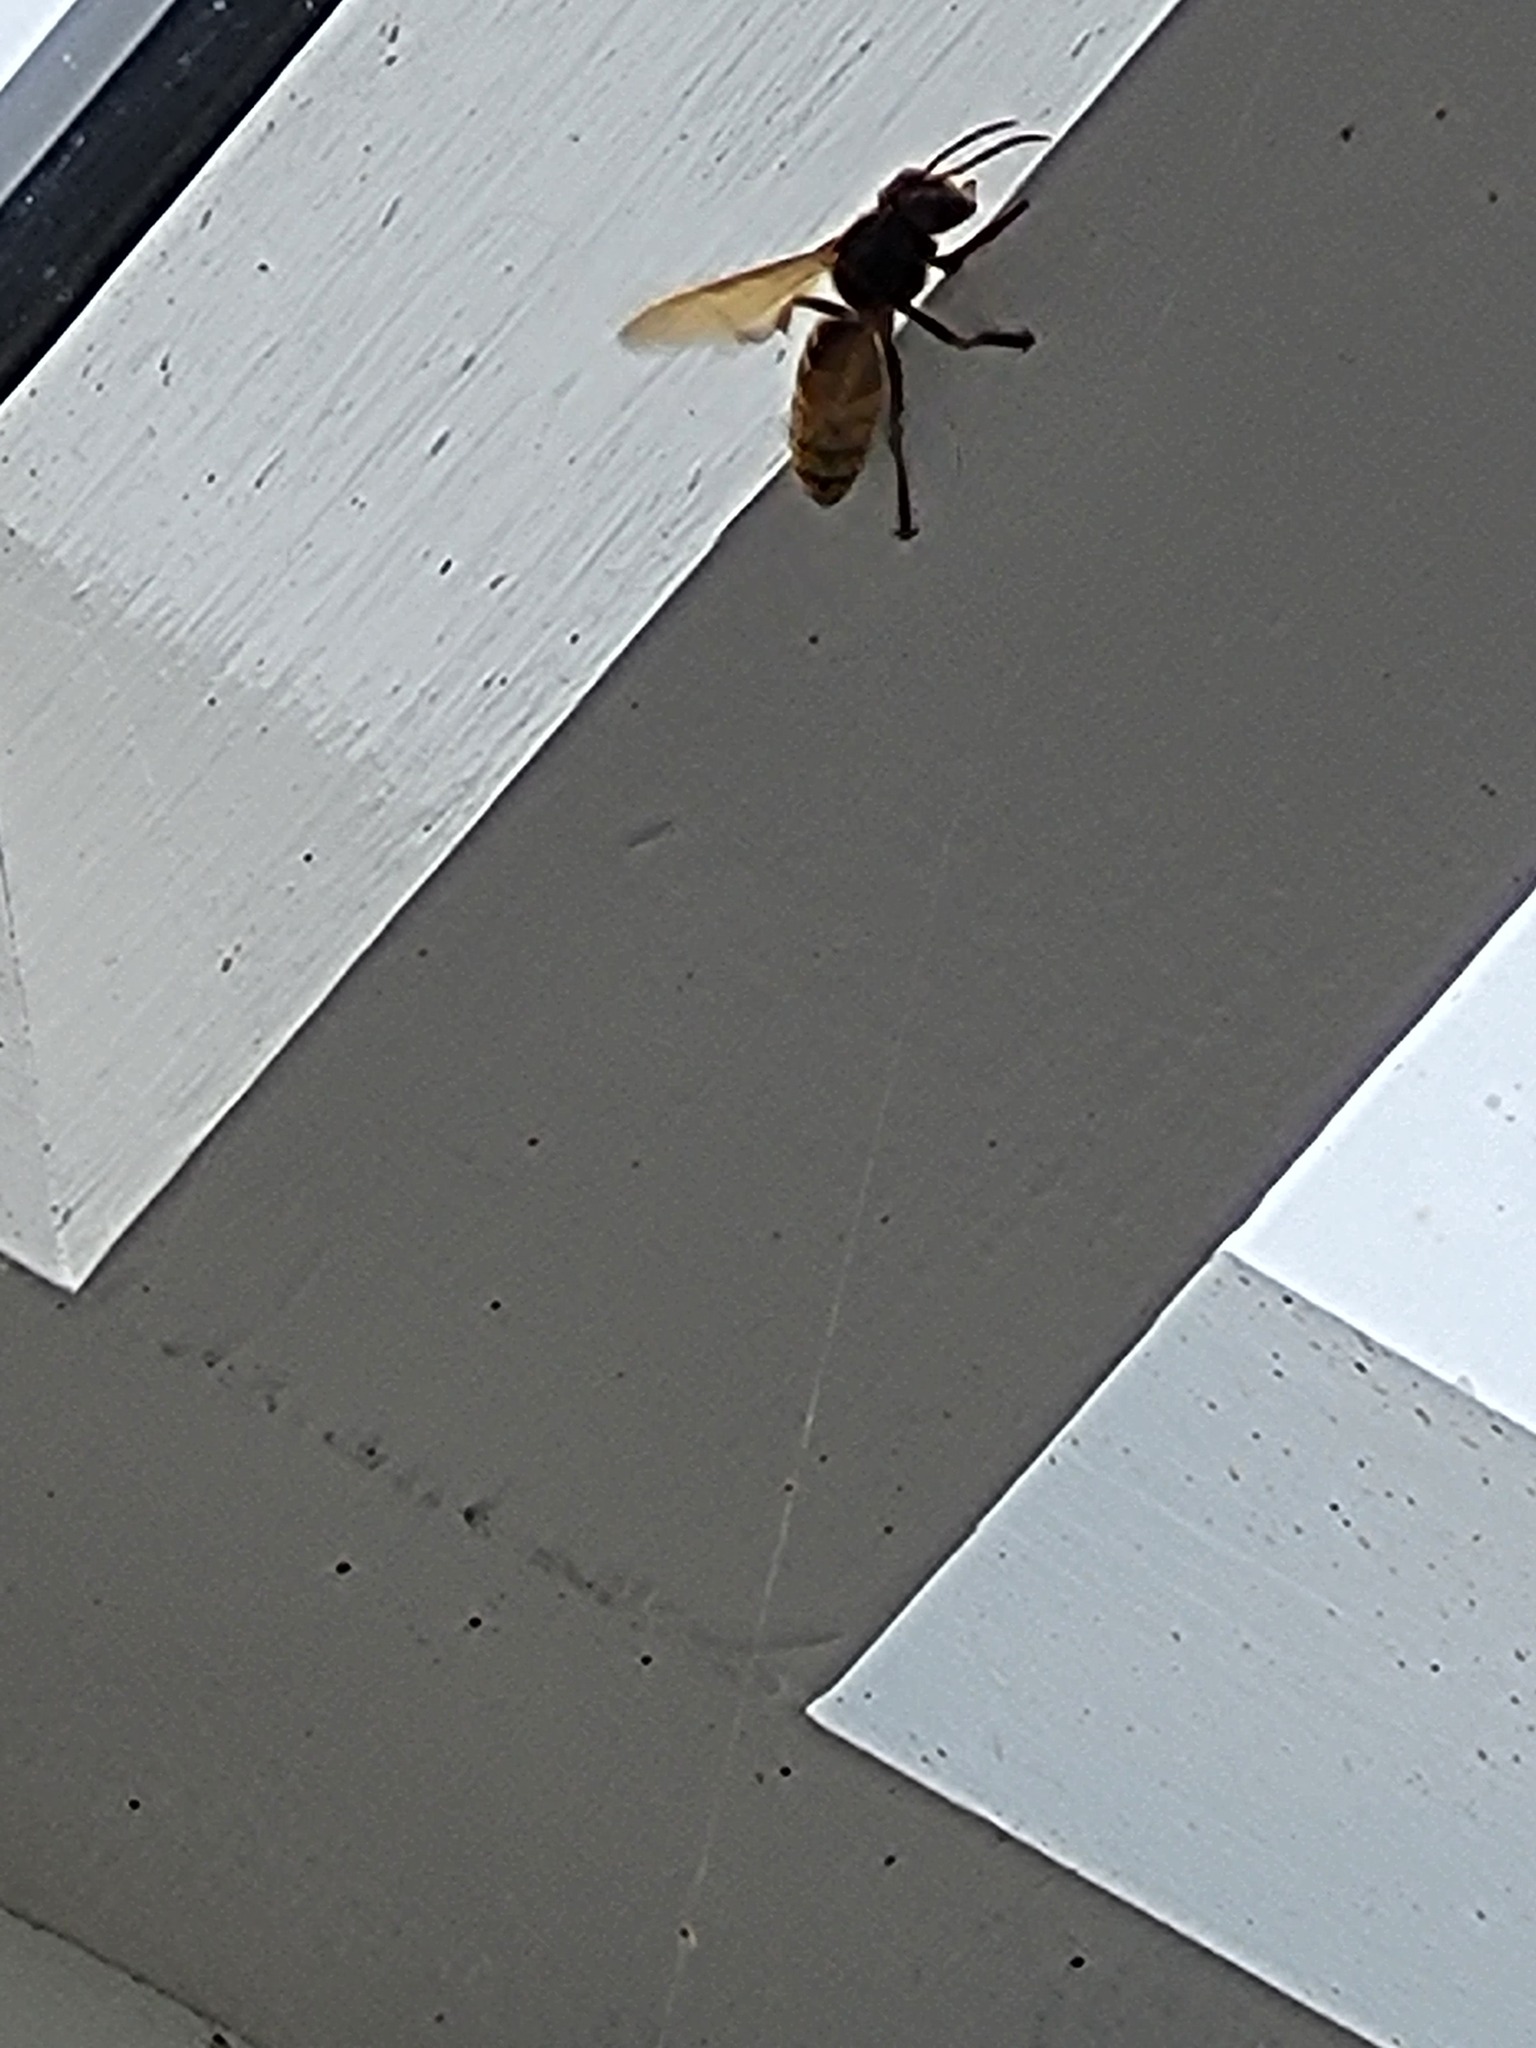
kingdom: Animalia
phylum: Arthropoda
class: Insecta
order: Hymenoptera
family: Vespidae
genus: Vespa
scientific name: Vespa crabro
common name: Hornet
